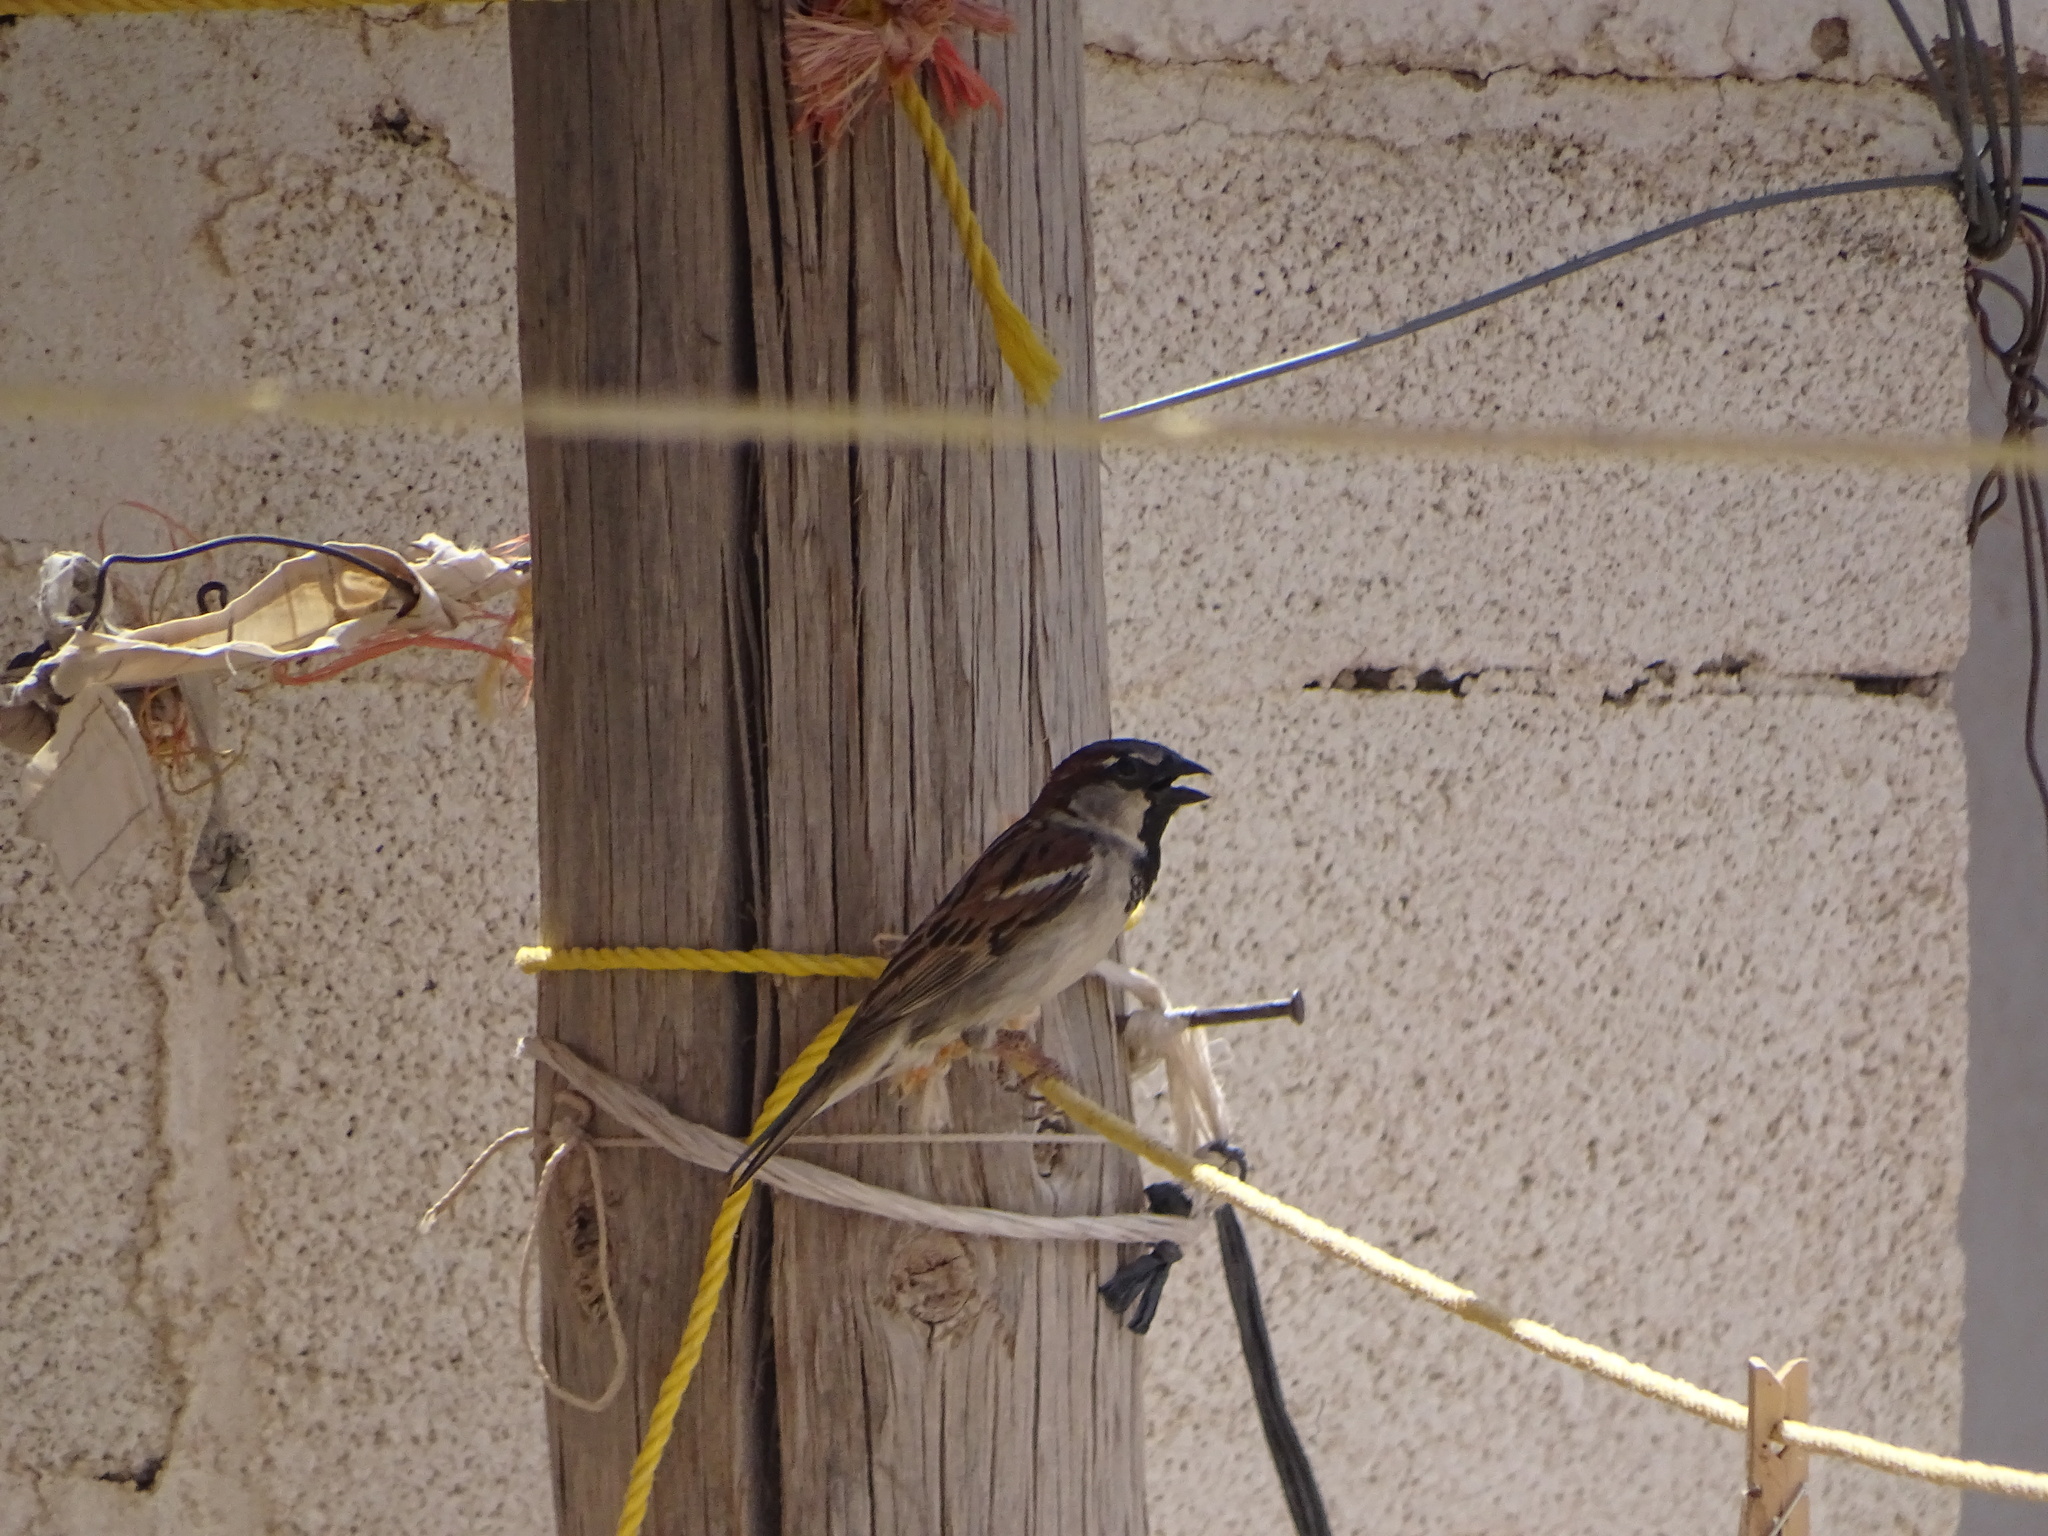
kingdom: Animalia
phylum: Chordata
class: Aves
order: Passeriformes
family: Passeridae
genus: Passer
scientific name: Passer domesticus
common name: House sparrow
